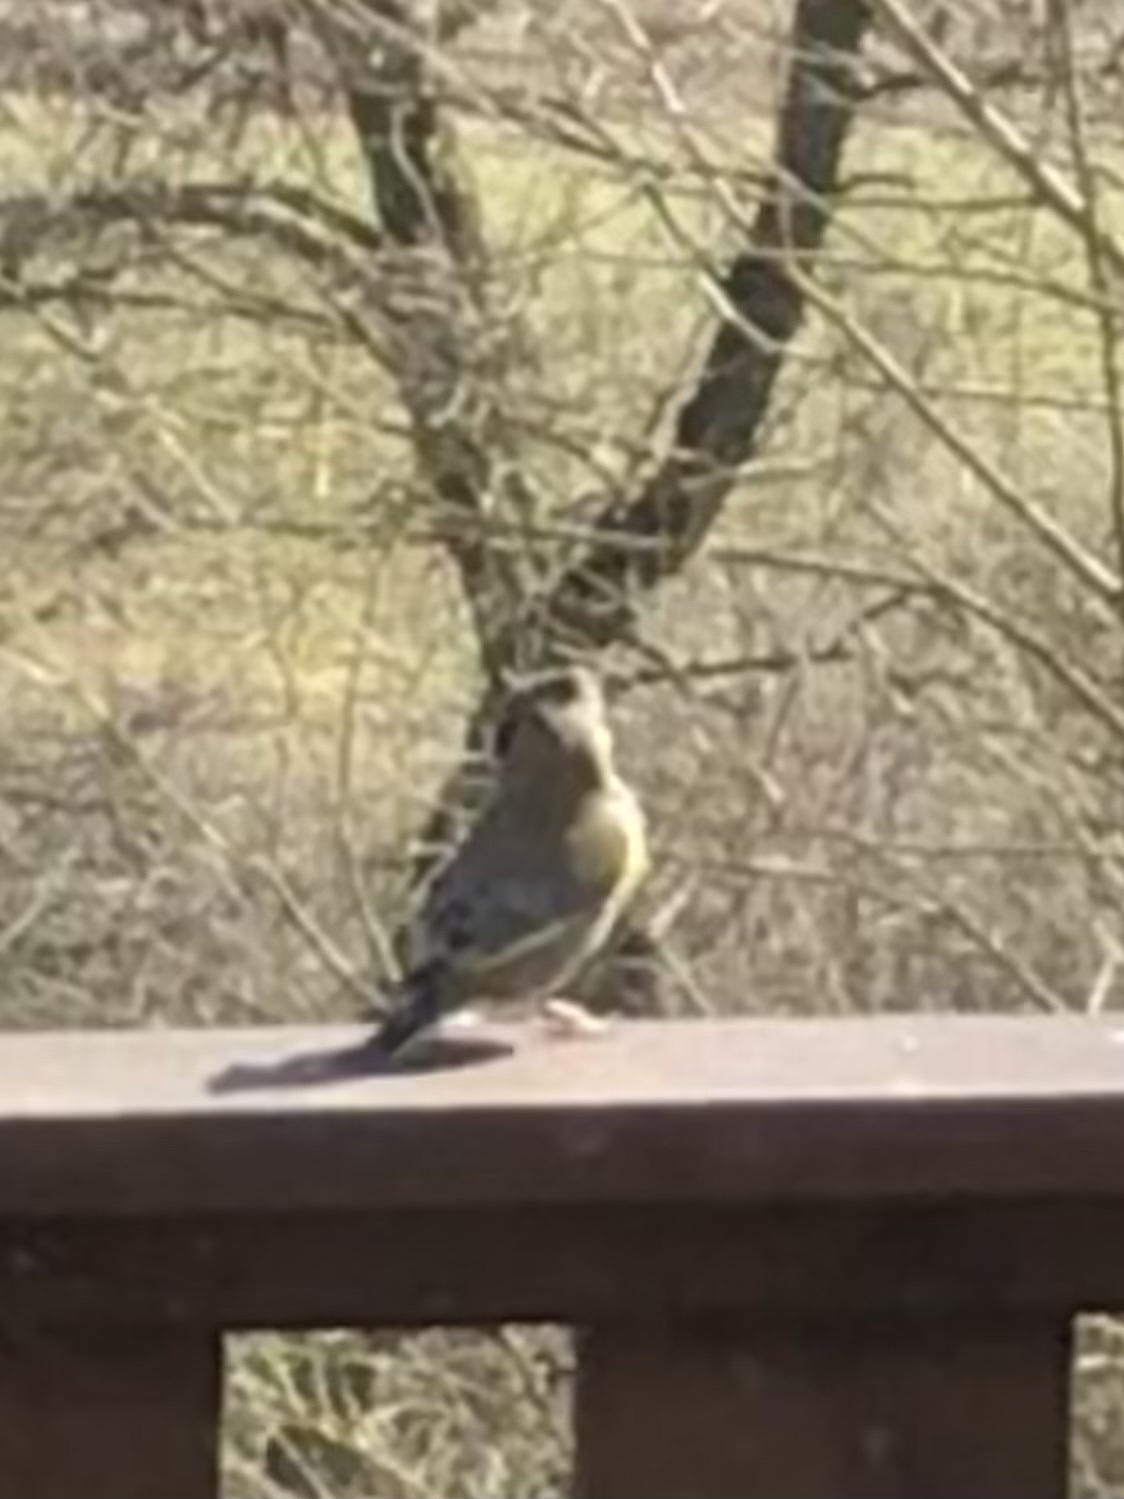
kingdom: Plantae
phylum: Tracheophyta
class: Liliopsida
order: Poales
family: Poaceae
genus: Chloris
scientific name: Chloris chloris
